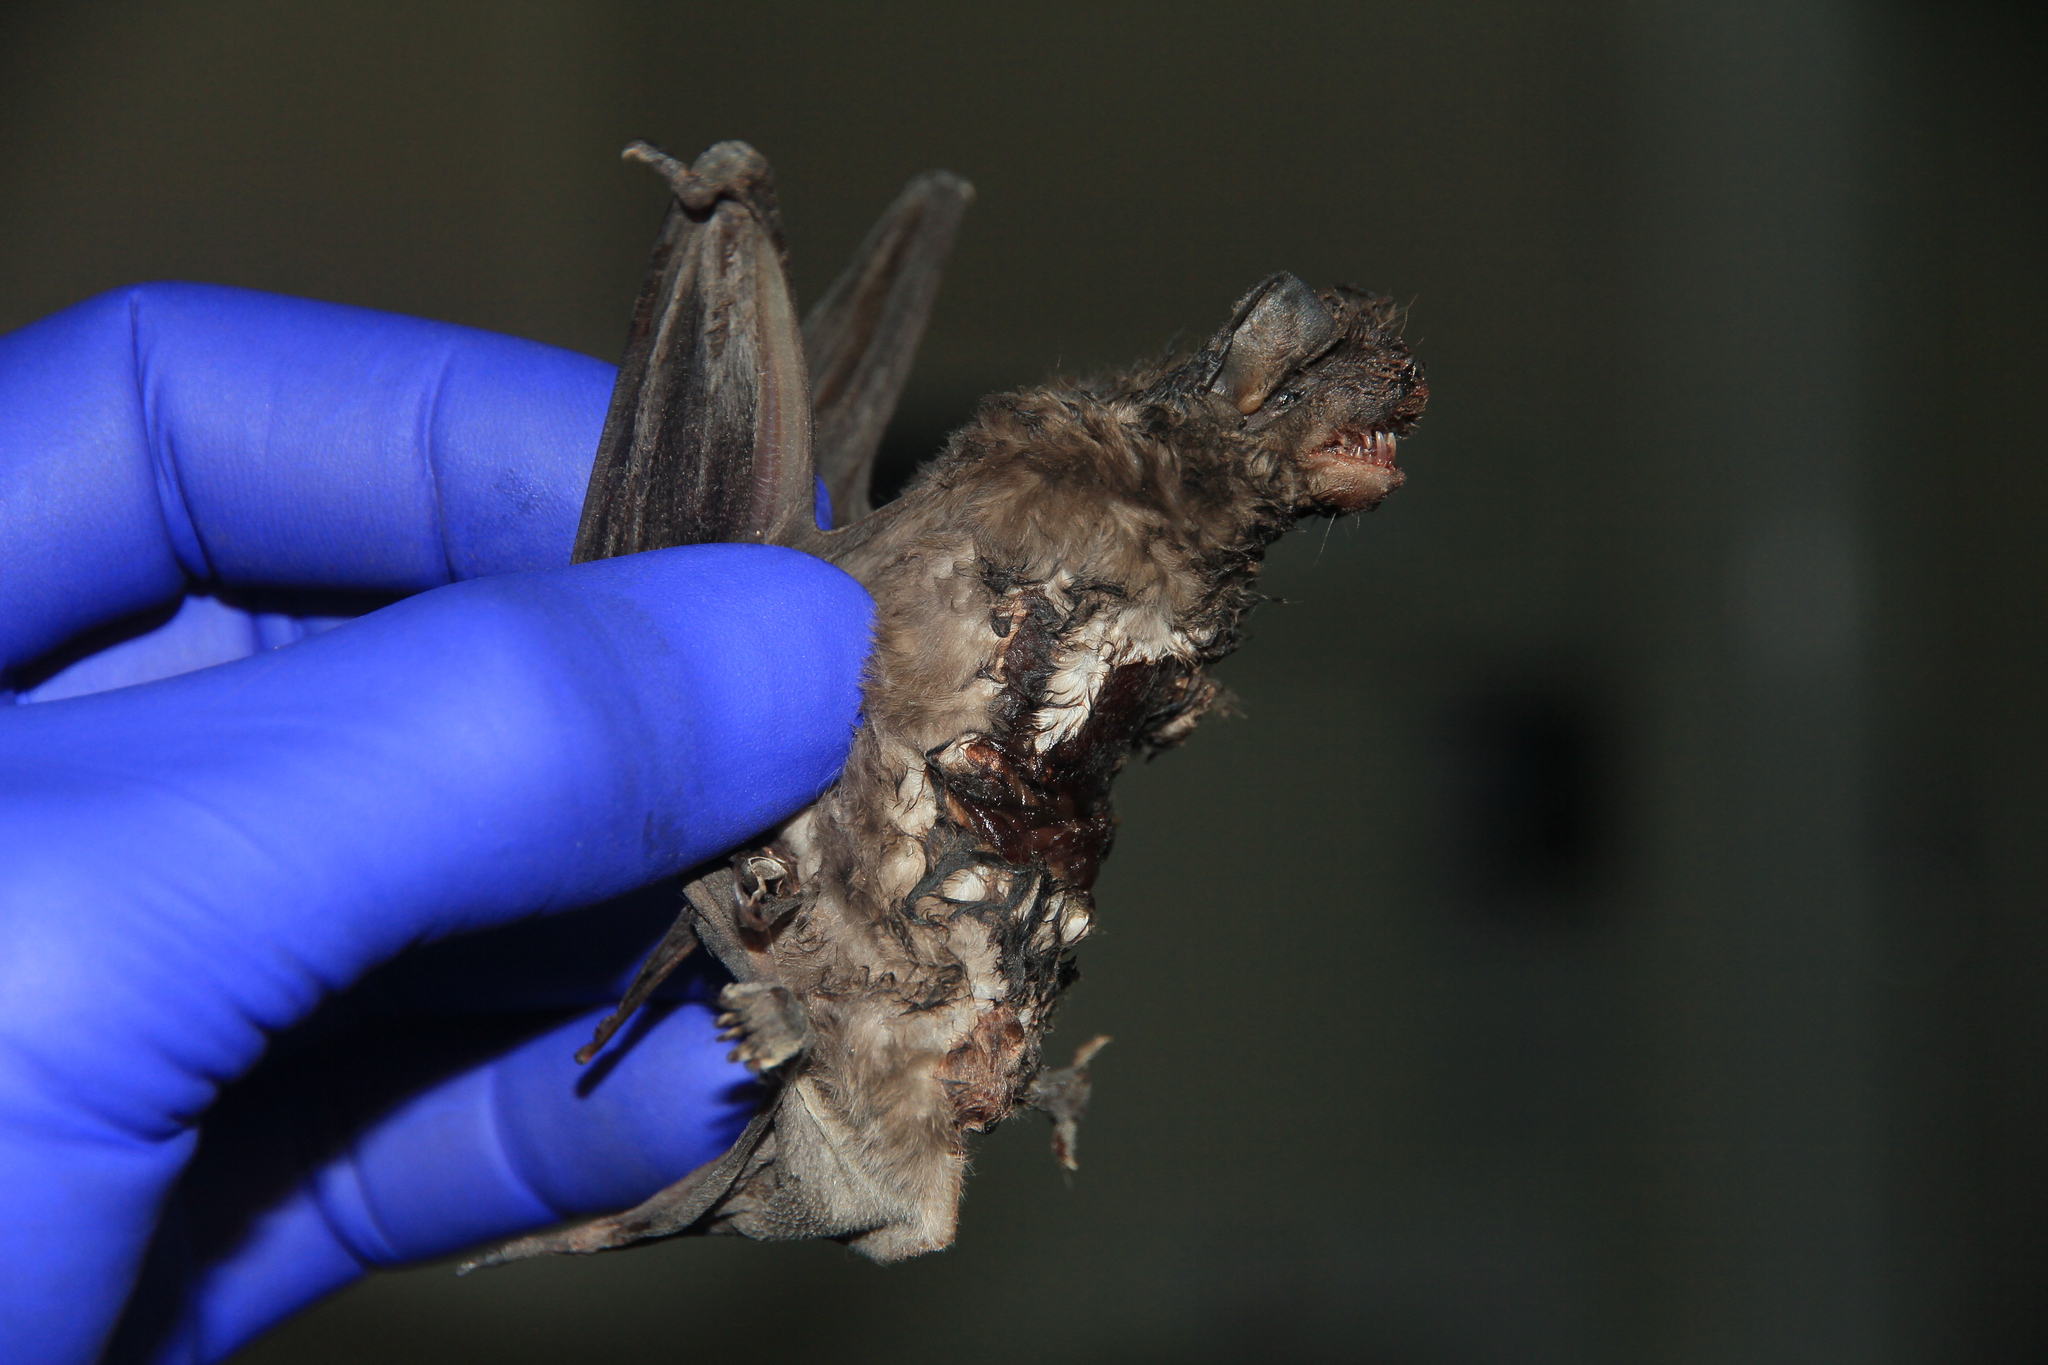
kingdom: Animalia
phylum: Chordata
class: Mammalia
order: Chiroptera
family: Molossidae
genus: Promops
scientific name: Promops davisoni
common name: Davison’s mastiff bat
